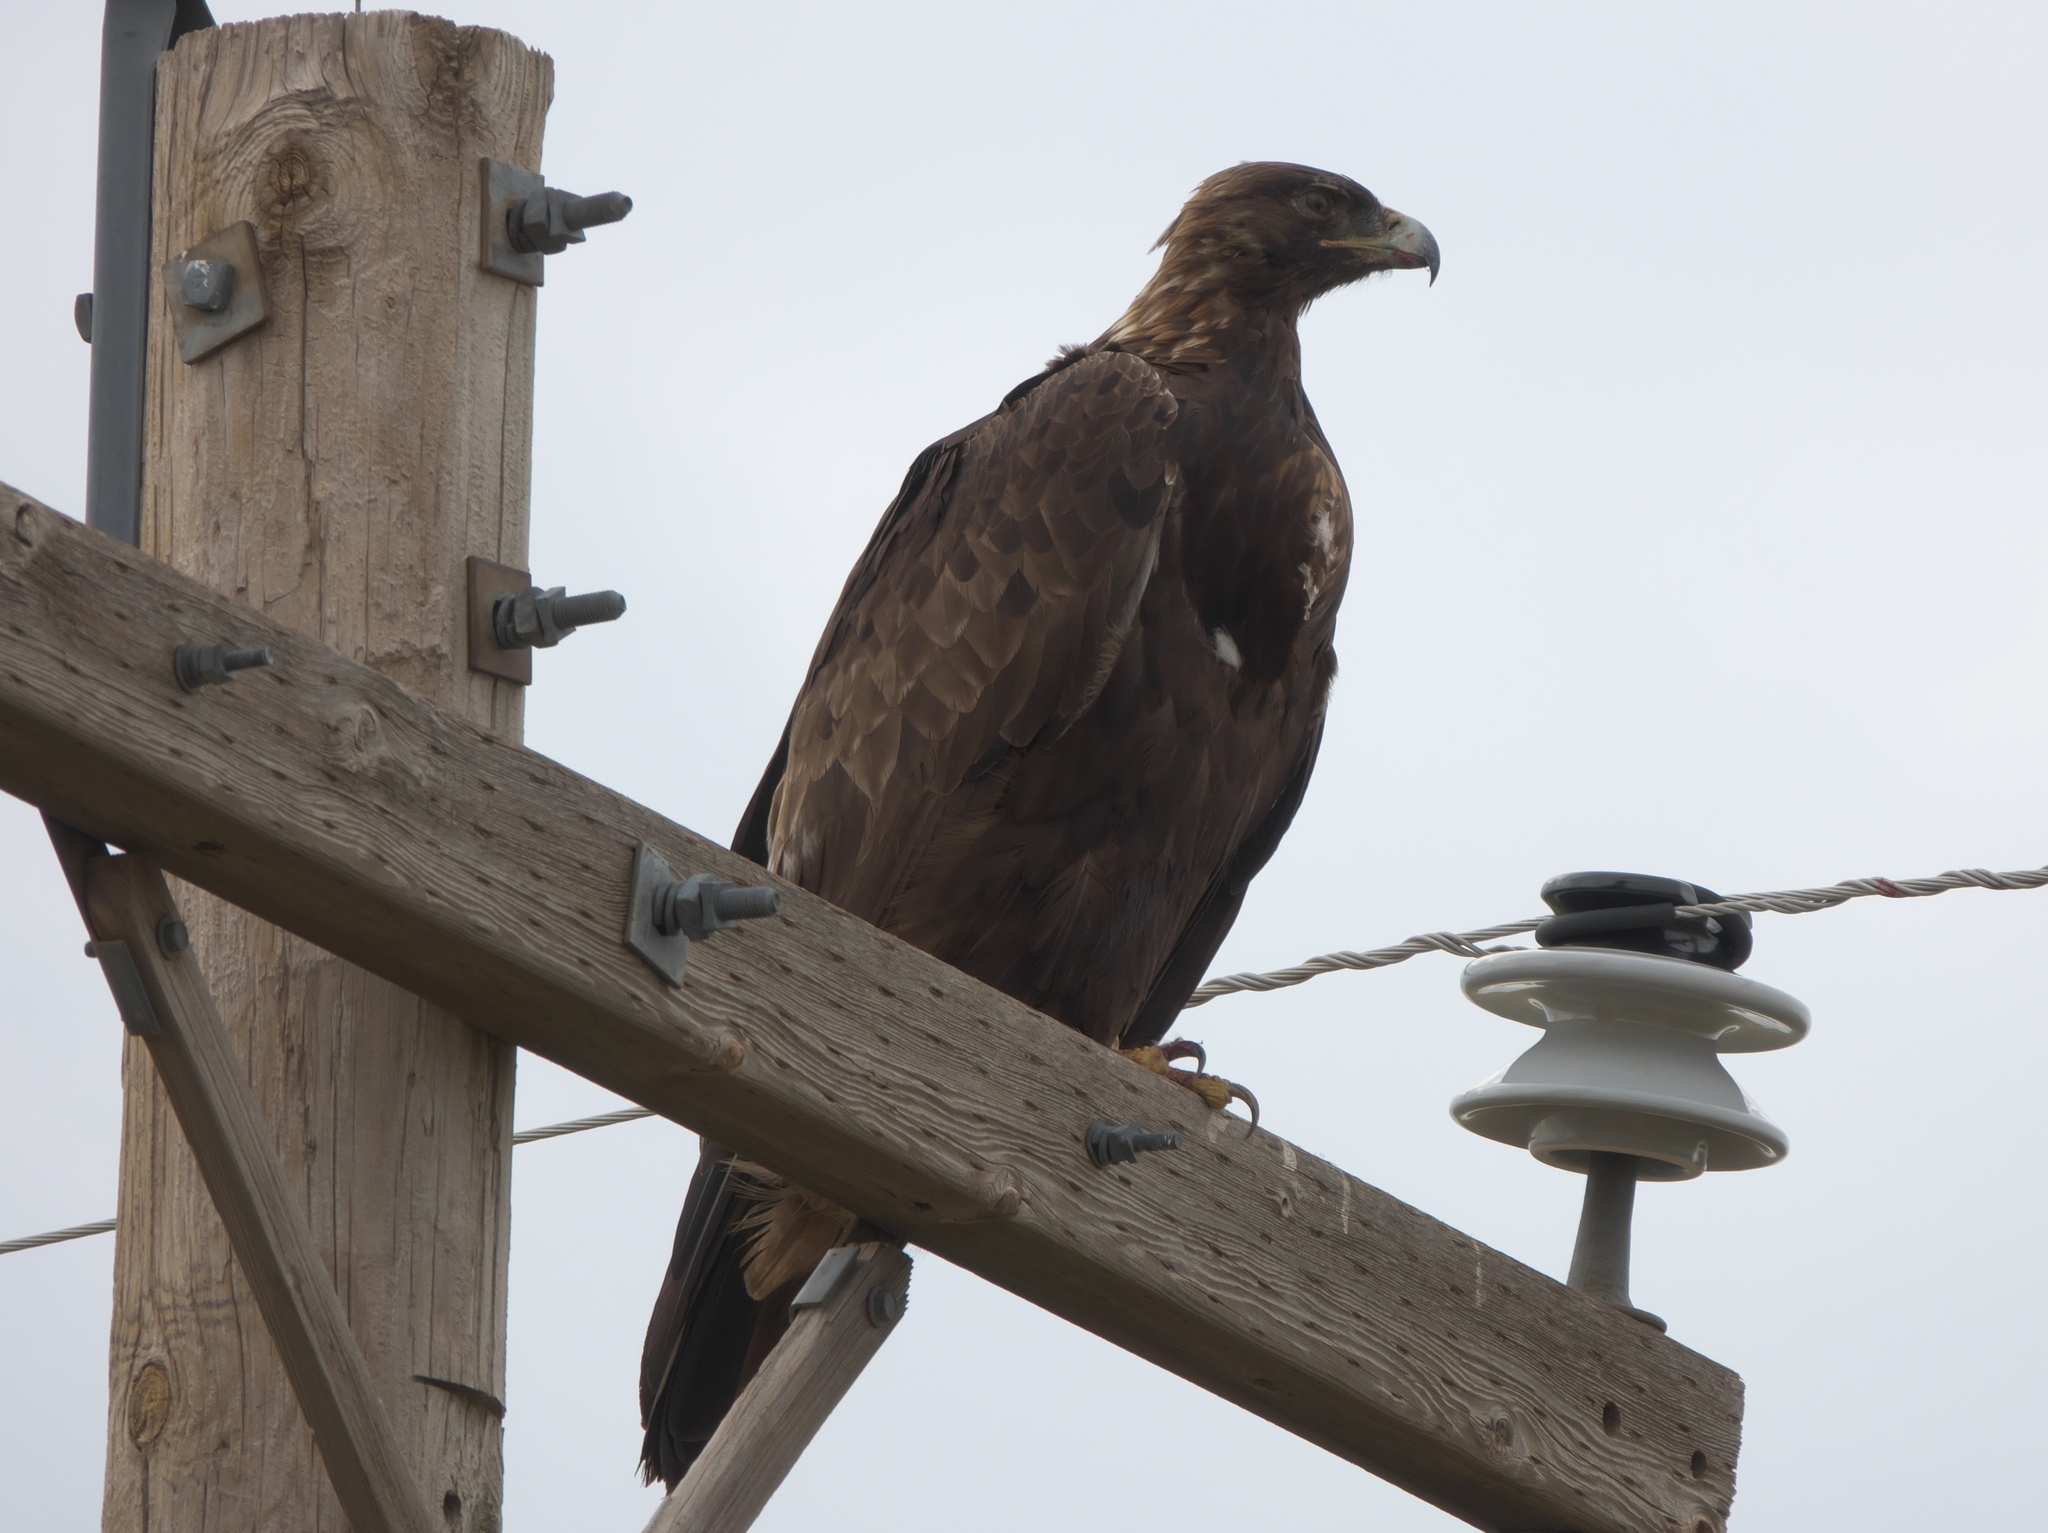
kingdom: Animalia
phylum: Chordata
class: Aves
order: Accipitriformes
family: Accipitridae
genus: Aquila
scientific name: Aquila chrysaetos
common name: Golden eagle
